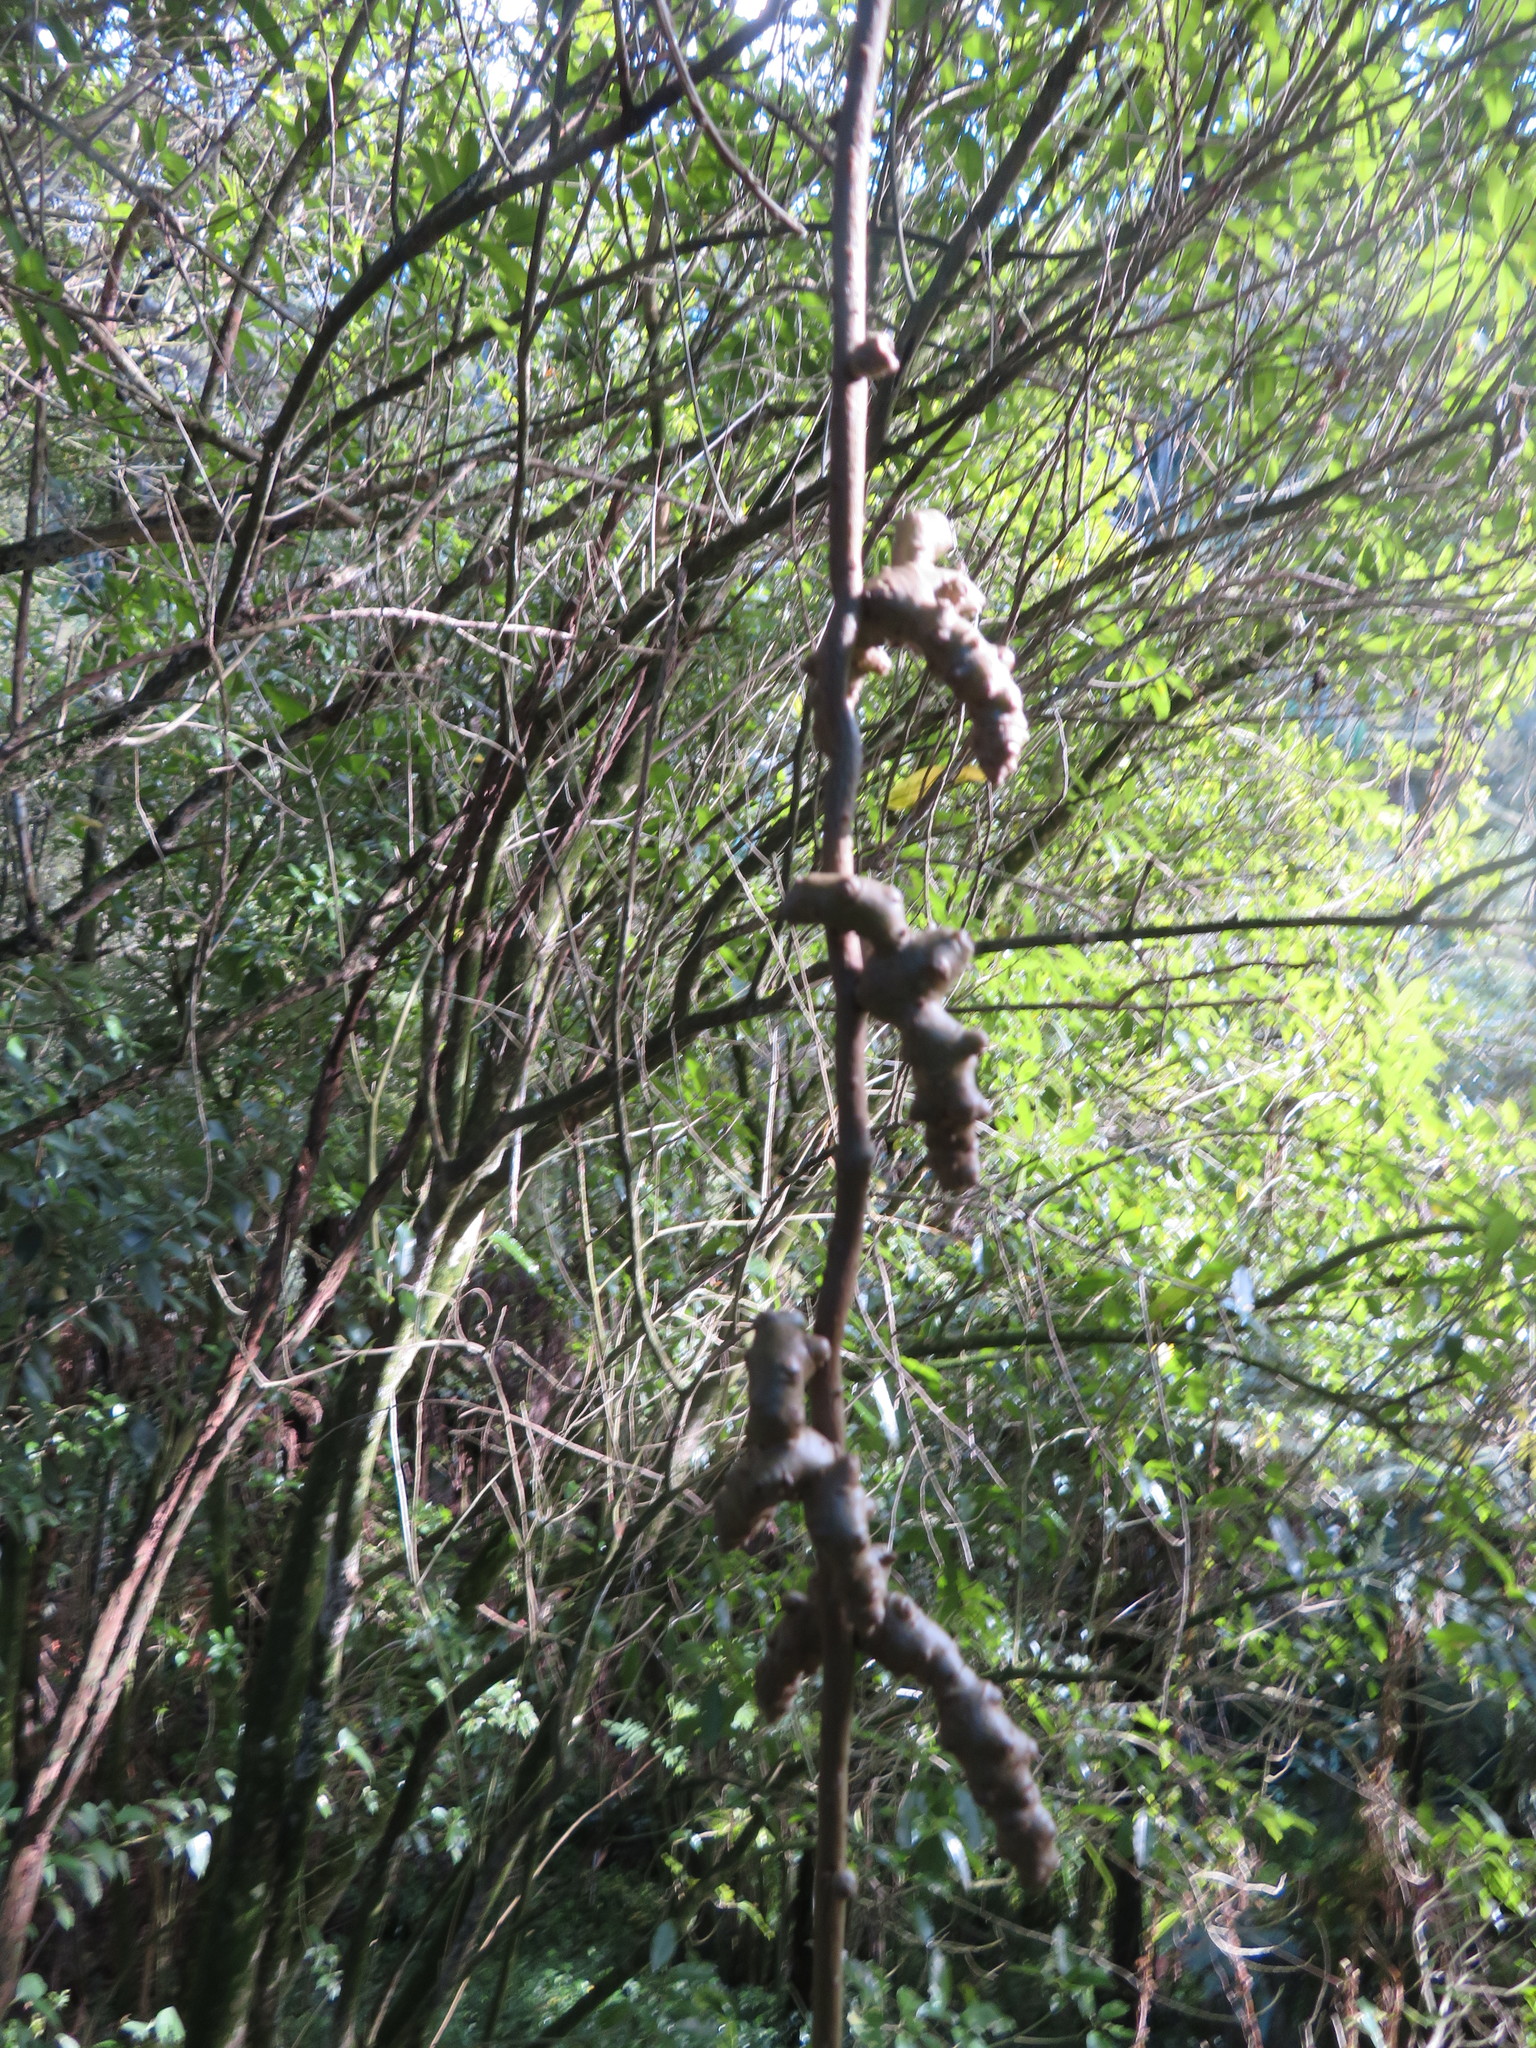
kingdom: Plantae
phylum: Tracheophyta
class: Magnoliopsida
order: Caryophyllales
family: Basellaceae
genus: Anredera
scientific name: Anredera cordifolia
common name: Heartleaf madeiravine
